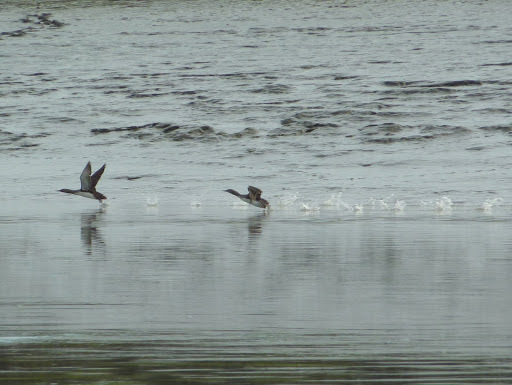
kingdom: Animalia
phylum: Chordata
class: Aves
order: Gaviiformes
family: Gaviidae
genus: Gavia
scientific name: Gavia stellata
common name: Red-throated loon
